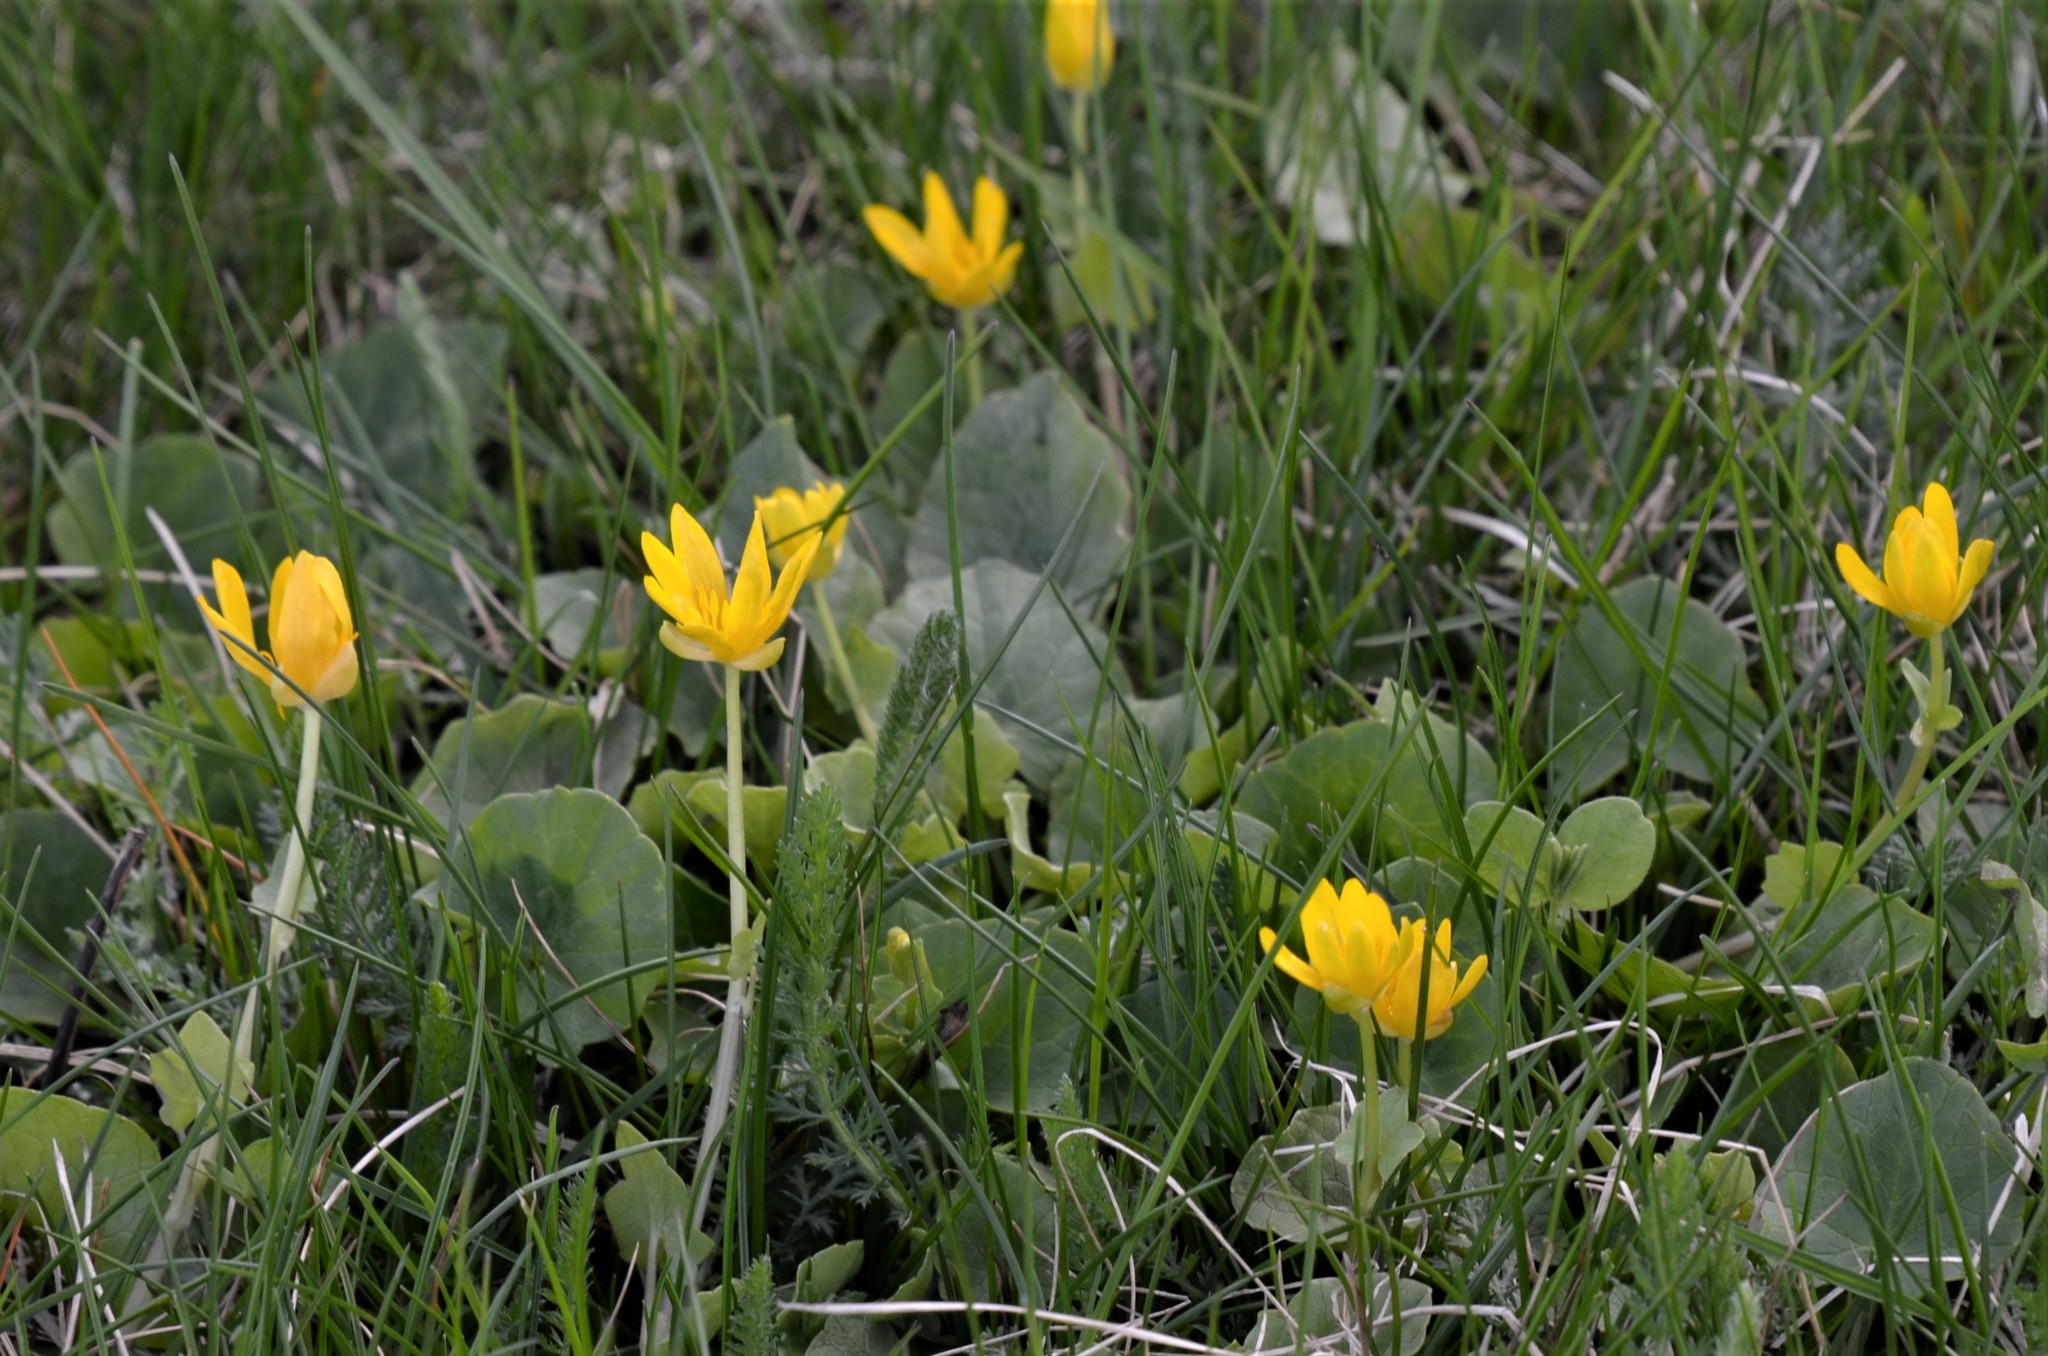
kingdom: Plantae
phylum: Tracheophyta
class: Magnoliopsida
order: Ranunculales
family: Ranunculaceae
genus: Ficaria
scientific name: Ficaria verna
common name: Lesser celandine
